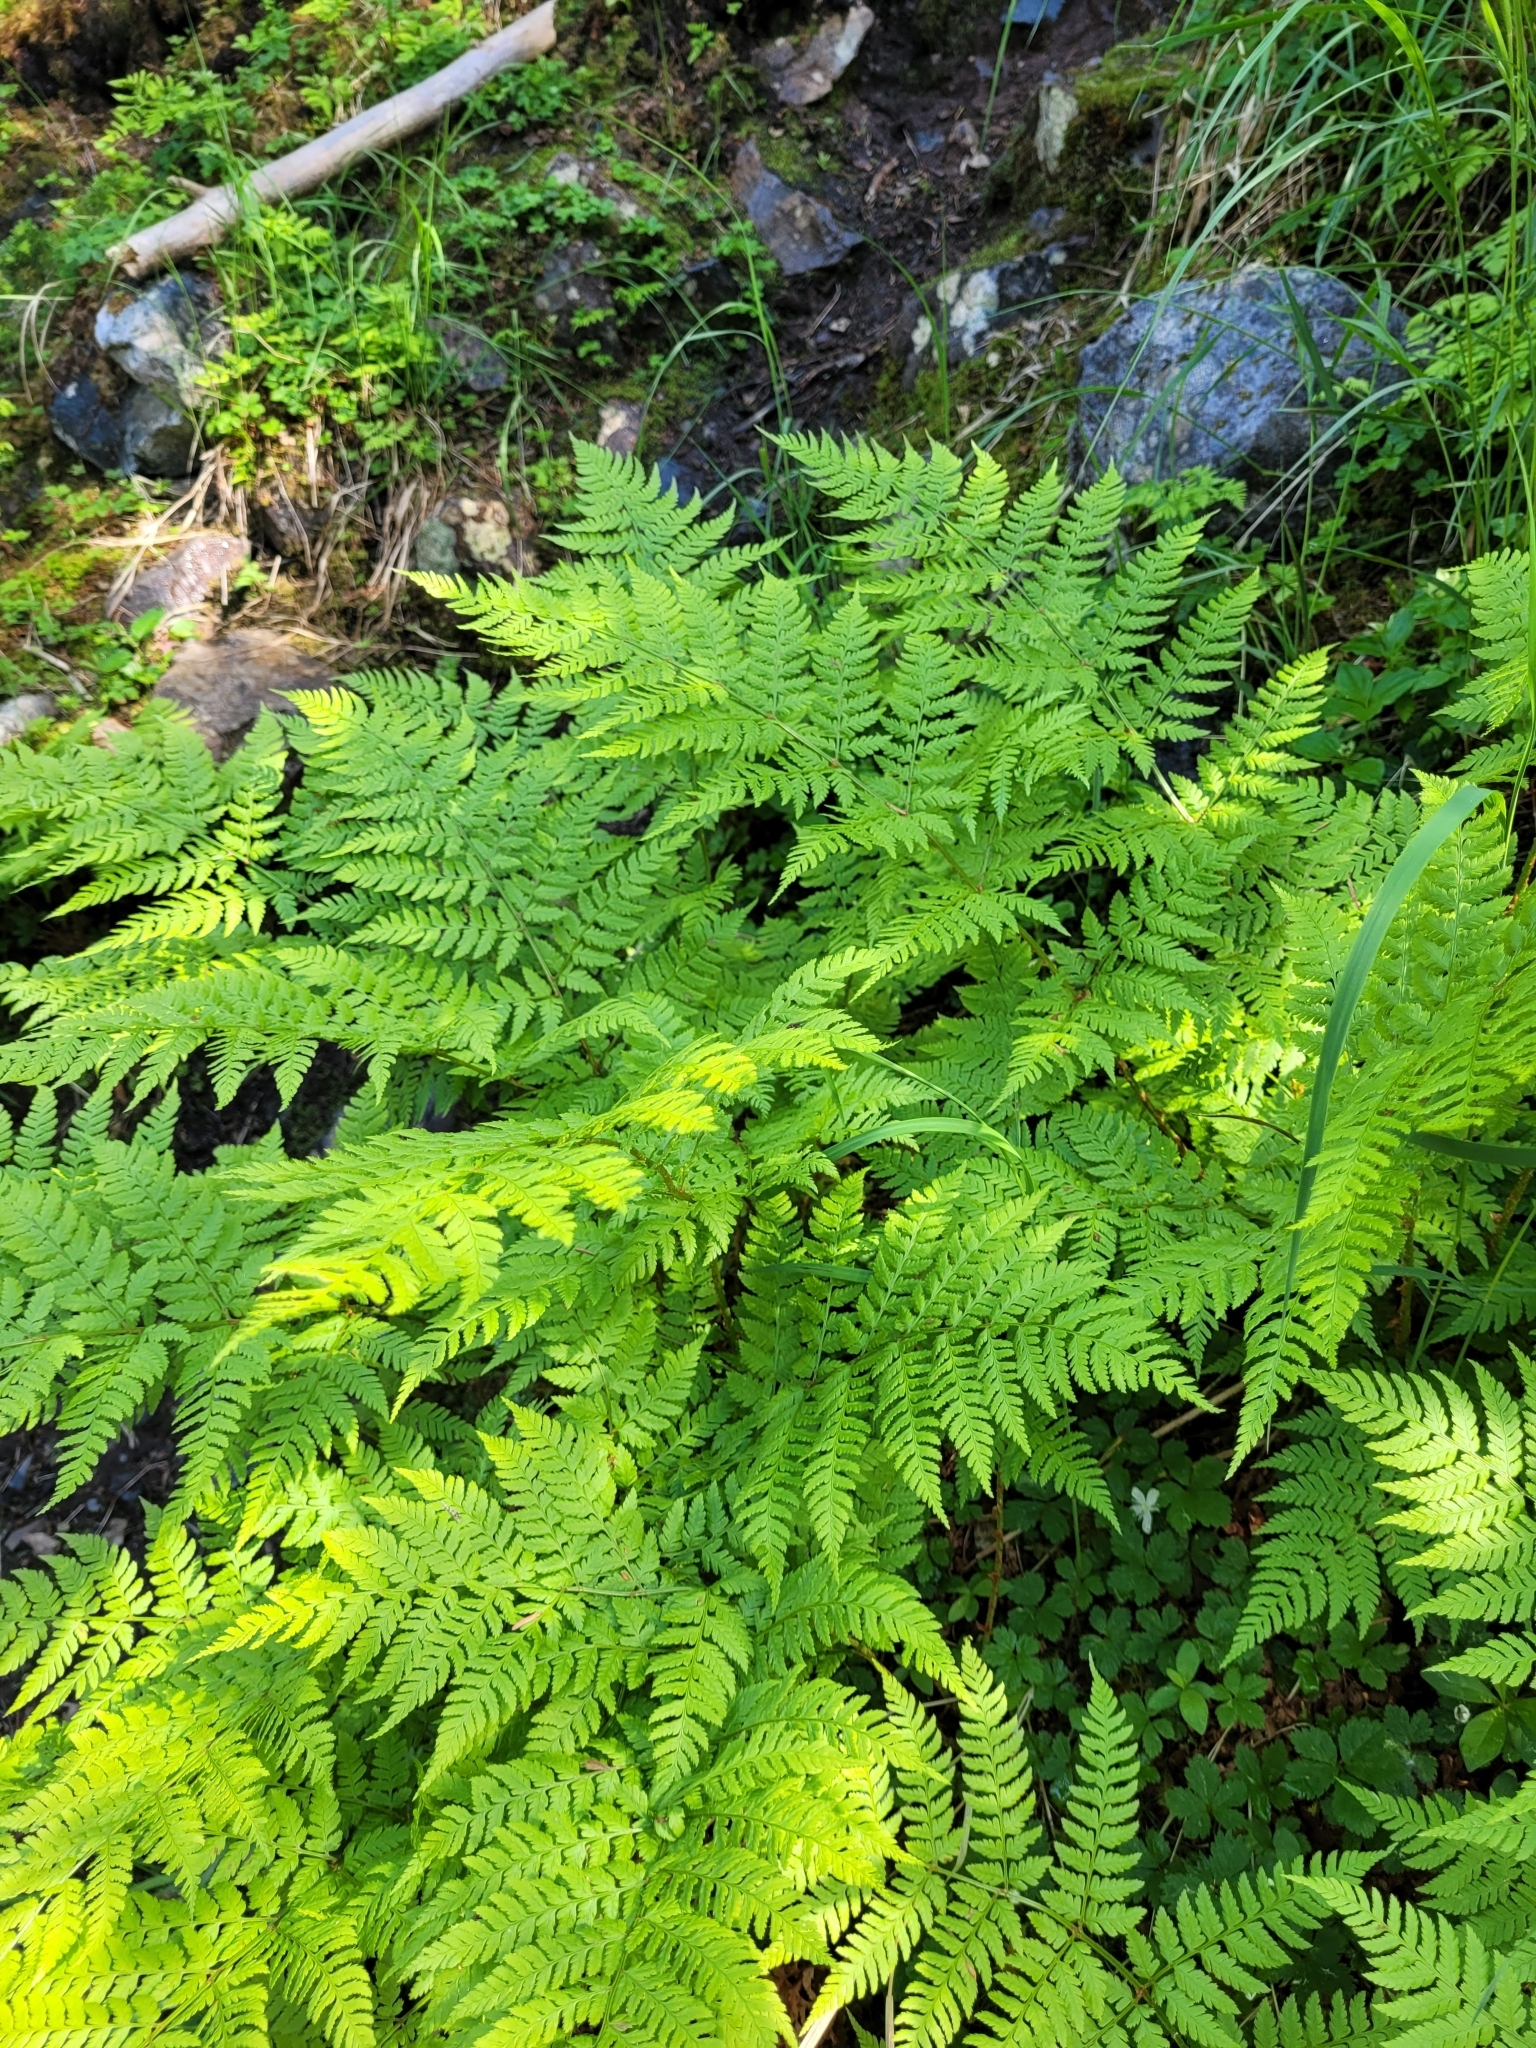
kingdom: Plantae
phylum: Tracheophyta
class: Polypodiopsida
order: Polypodiales
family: Dryopteridaceae
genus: Dryopteris
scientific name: Dryopteris expansa
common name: Northern buckler fern
